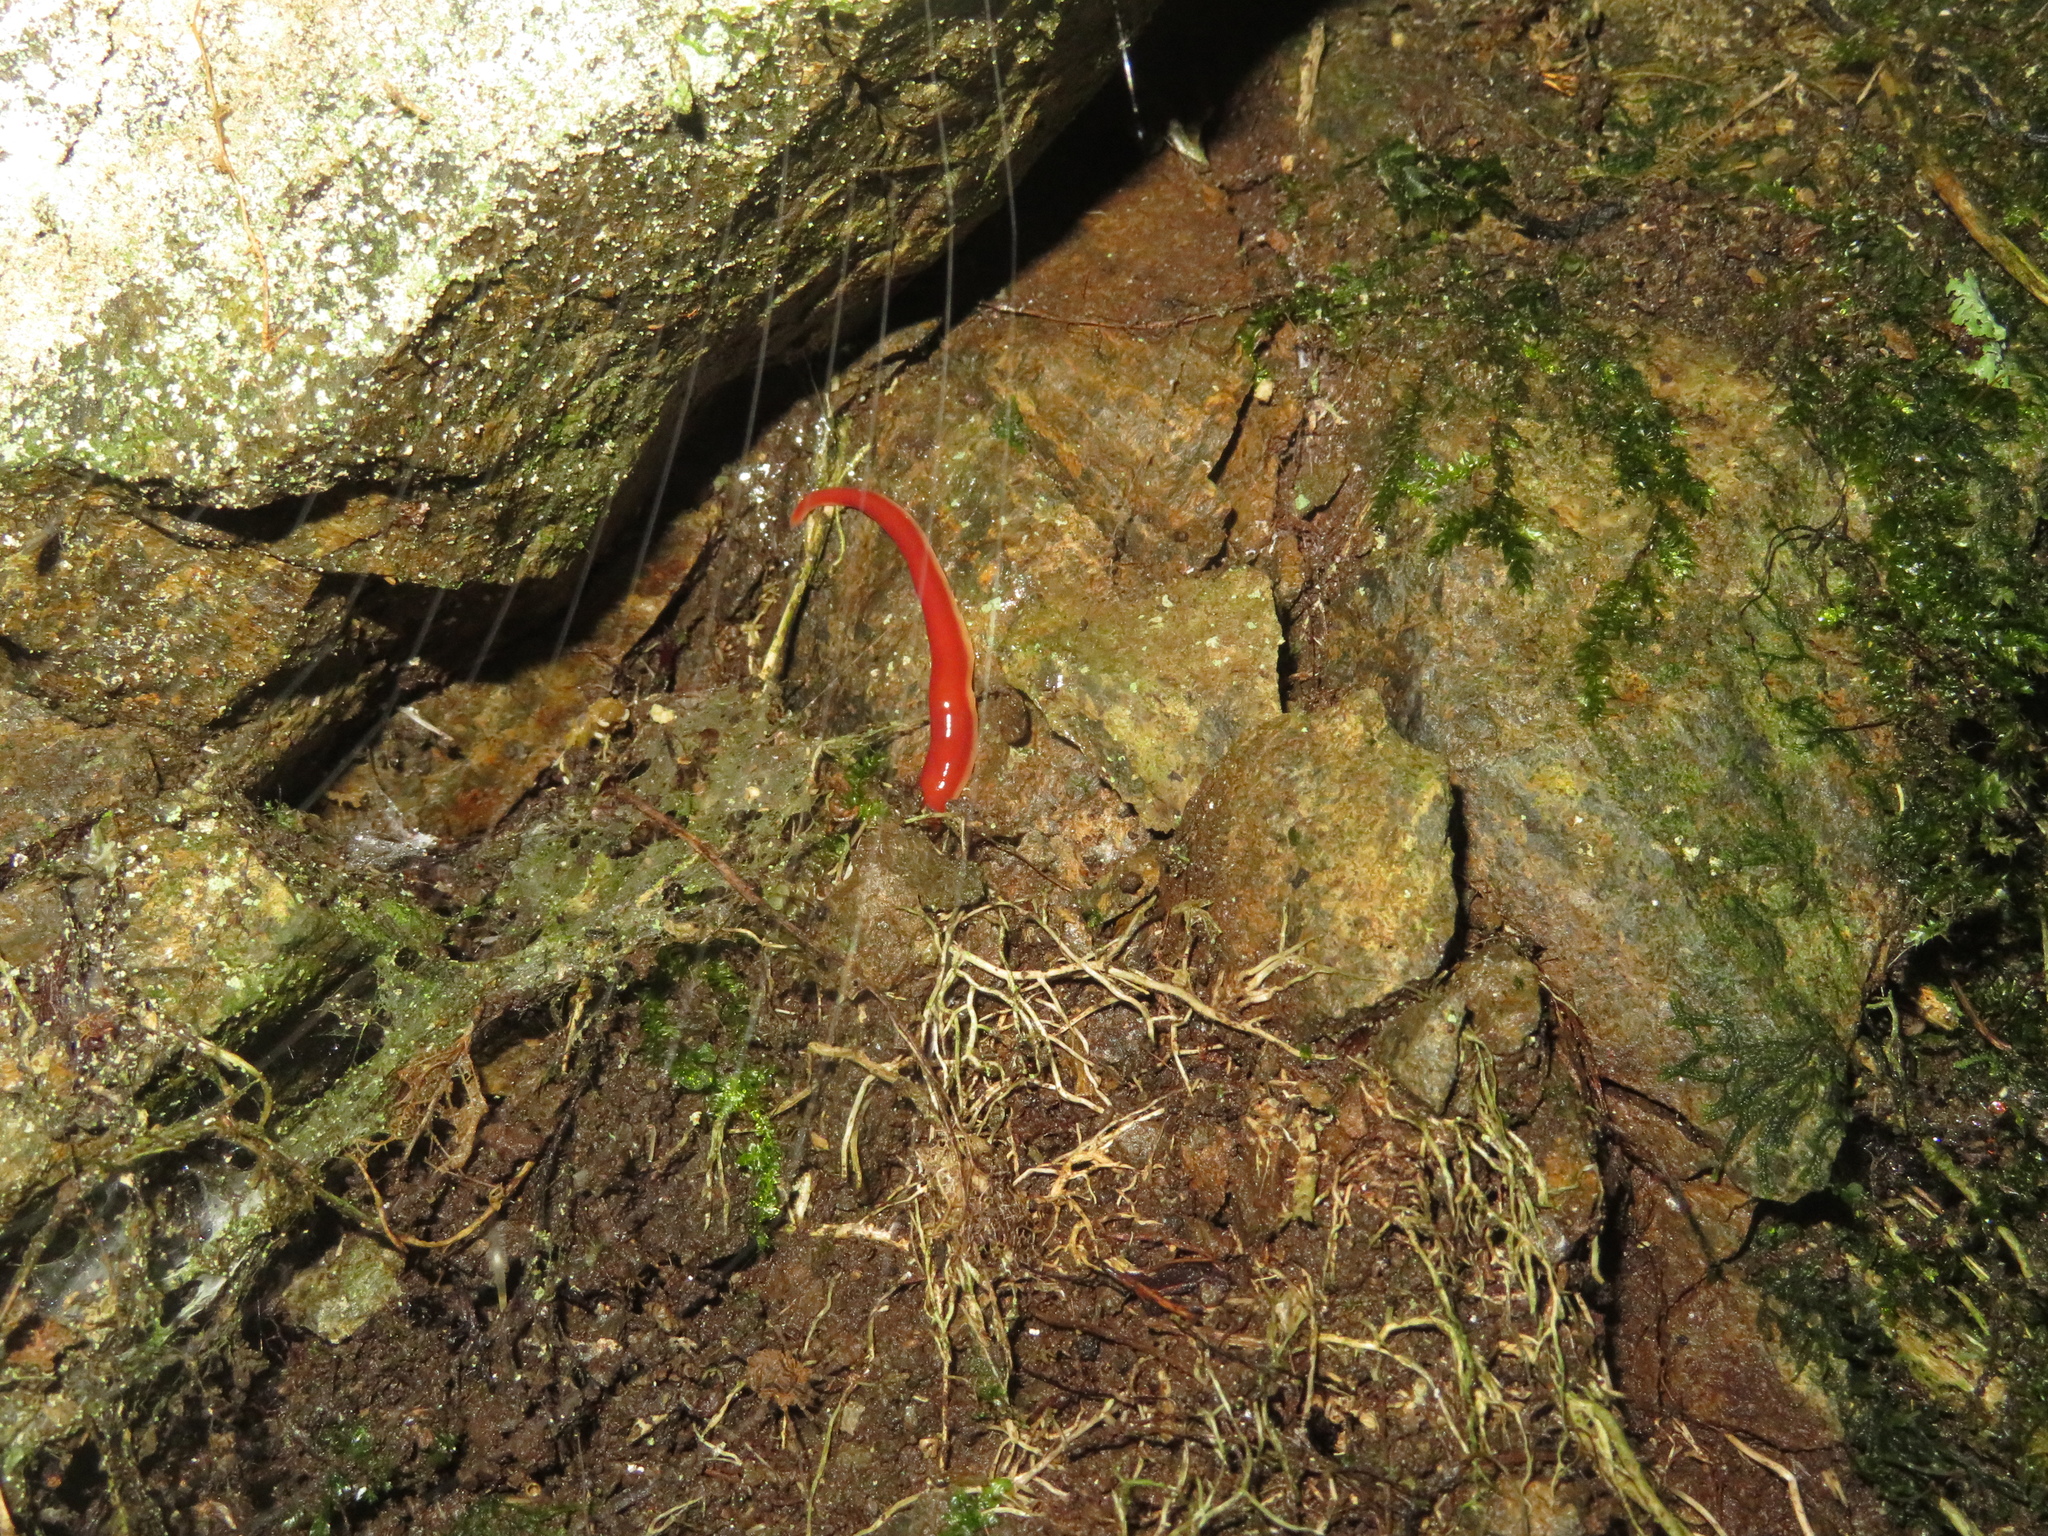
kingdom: Animalia
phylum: Platyhelminthes
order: Tricladida
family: Geoplanidae
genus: Arthurdendyus
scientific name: Arthurdendyus testaceus
